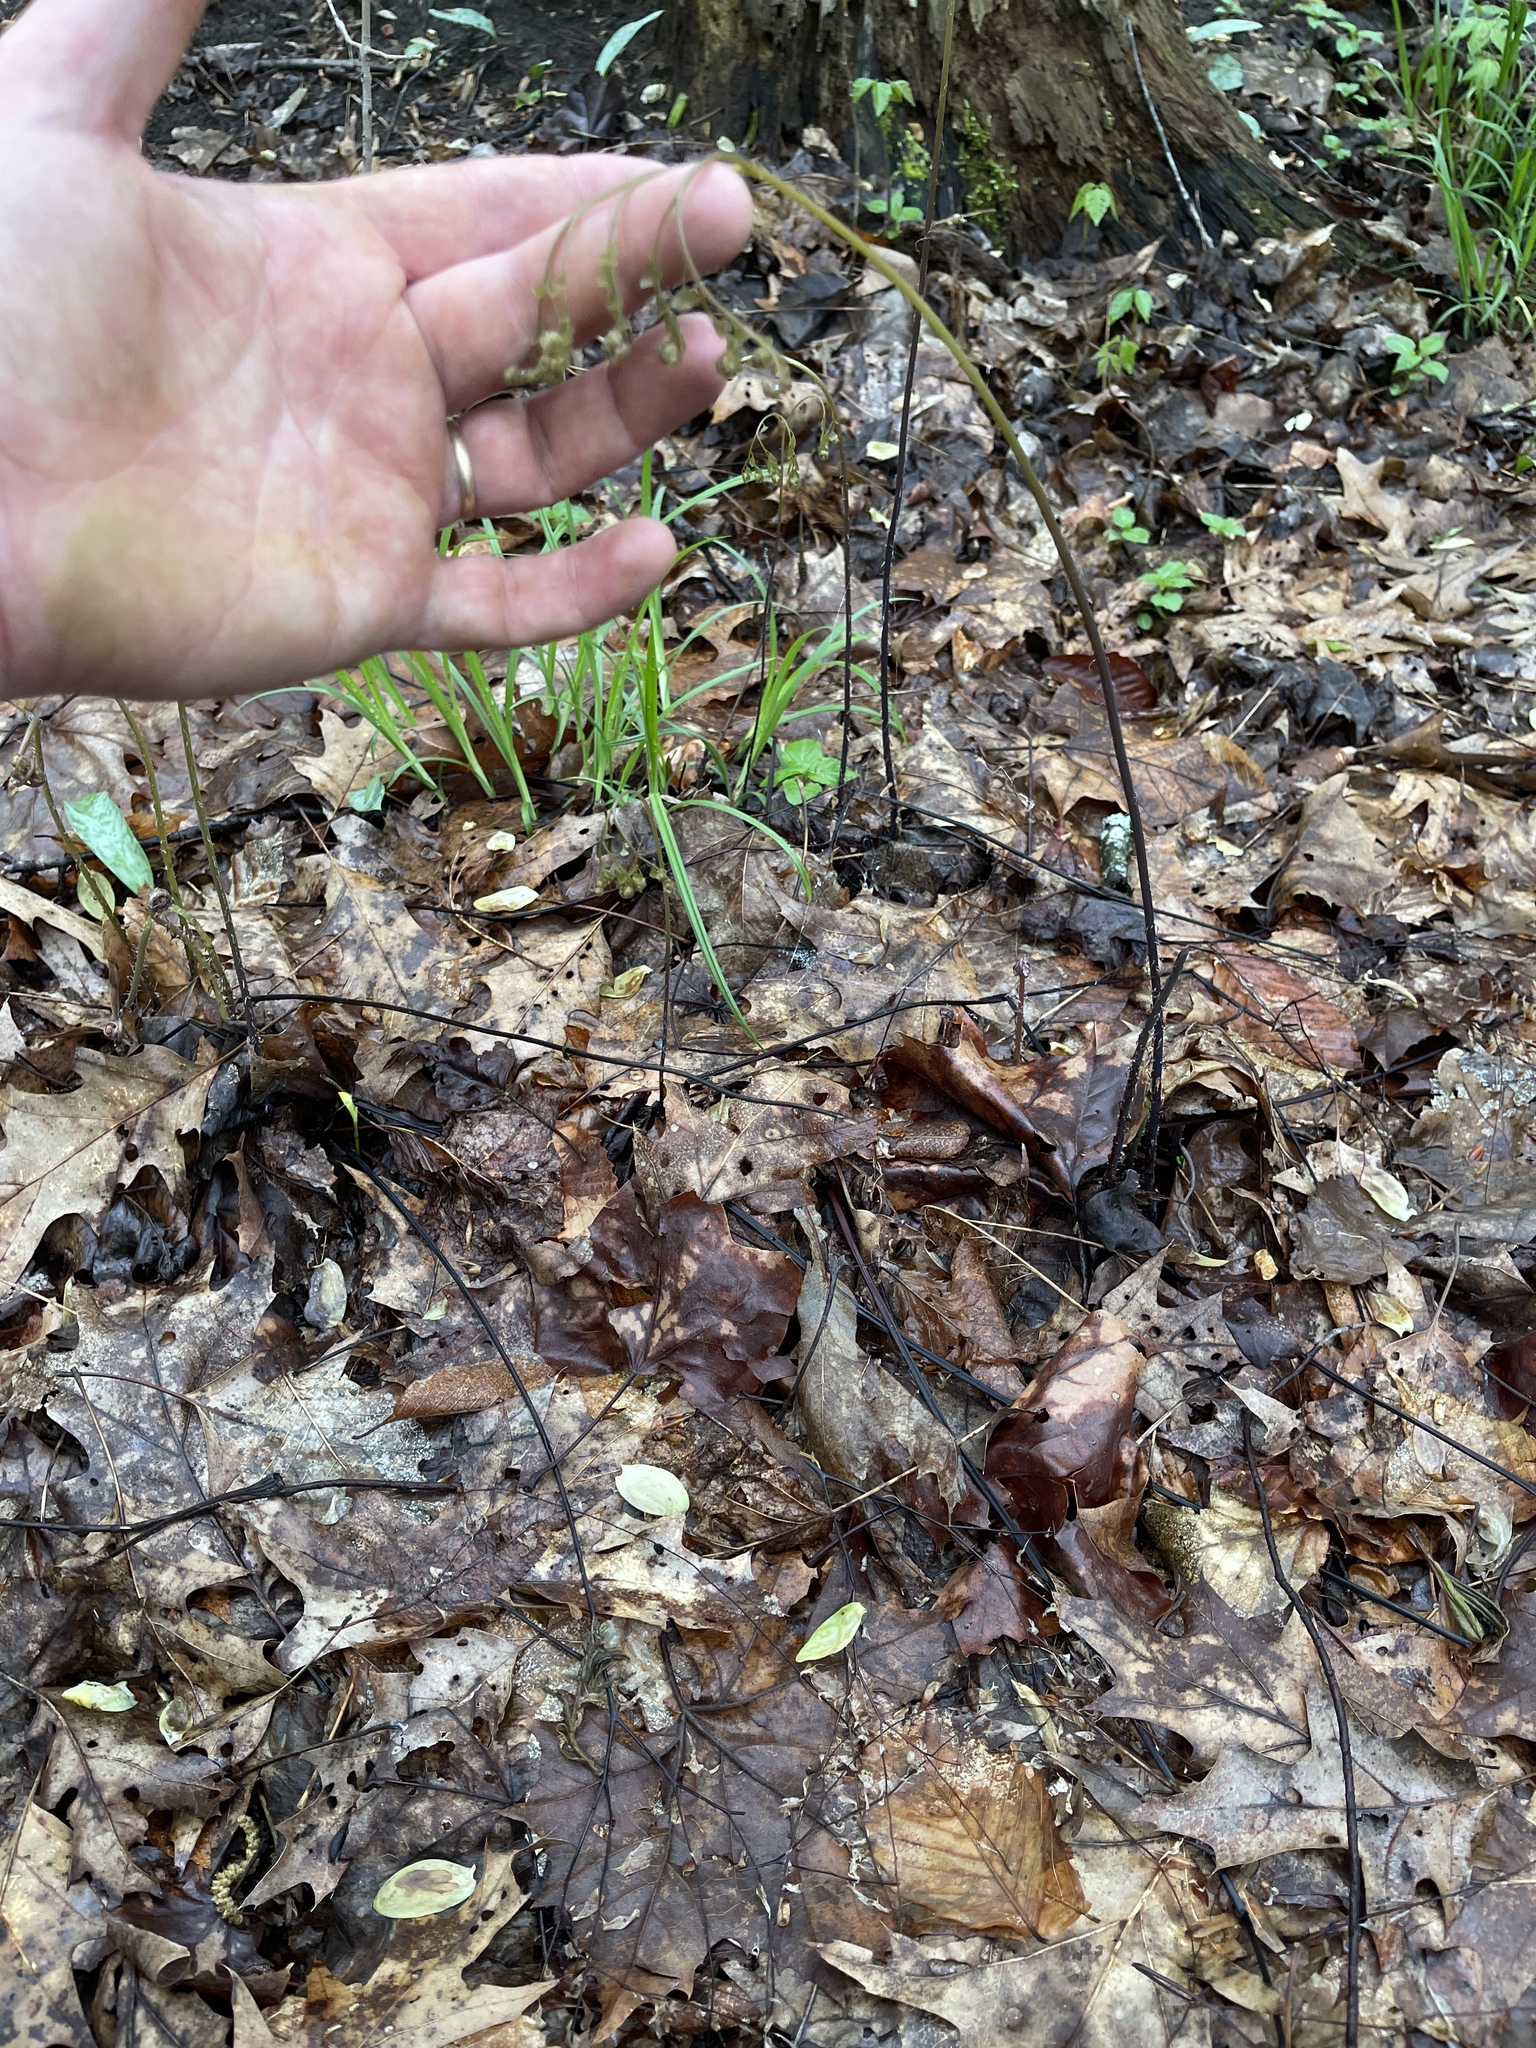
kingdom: Plantae
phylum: Tracheophyta
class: Polypodiopsida
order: Polypodiales
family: Pteridaceae
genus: Adiantum
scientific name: Adiantum pedatum
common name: Five-finger fern
